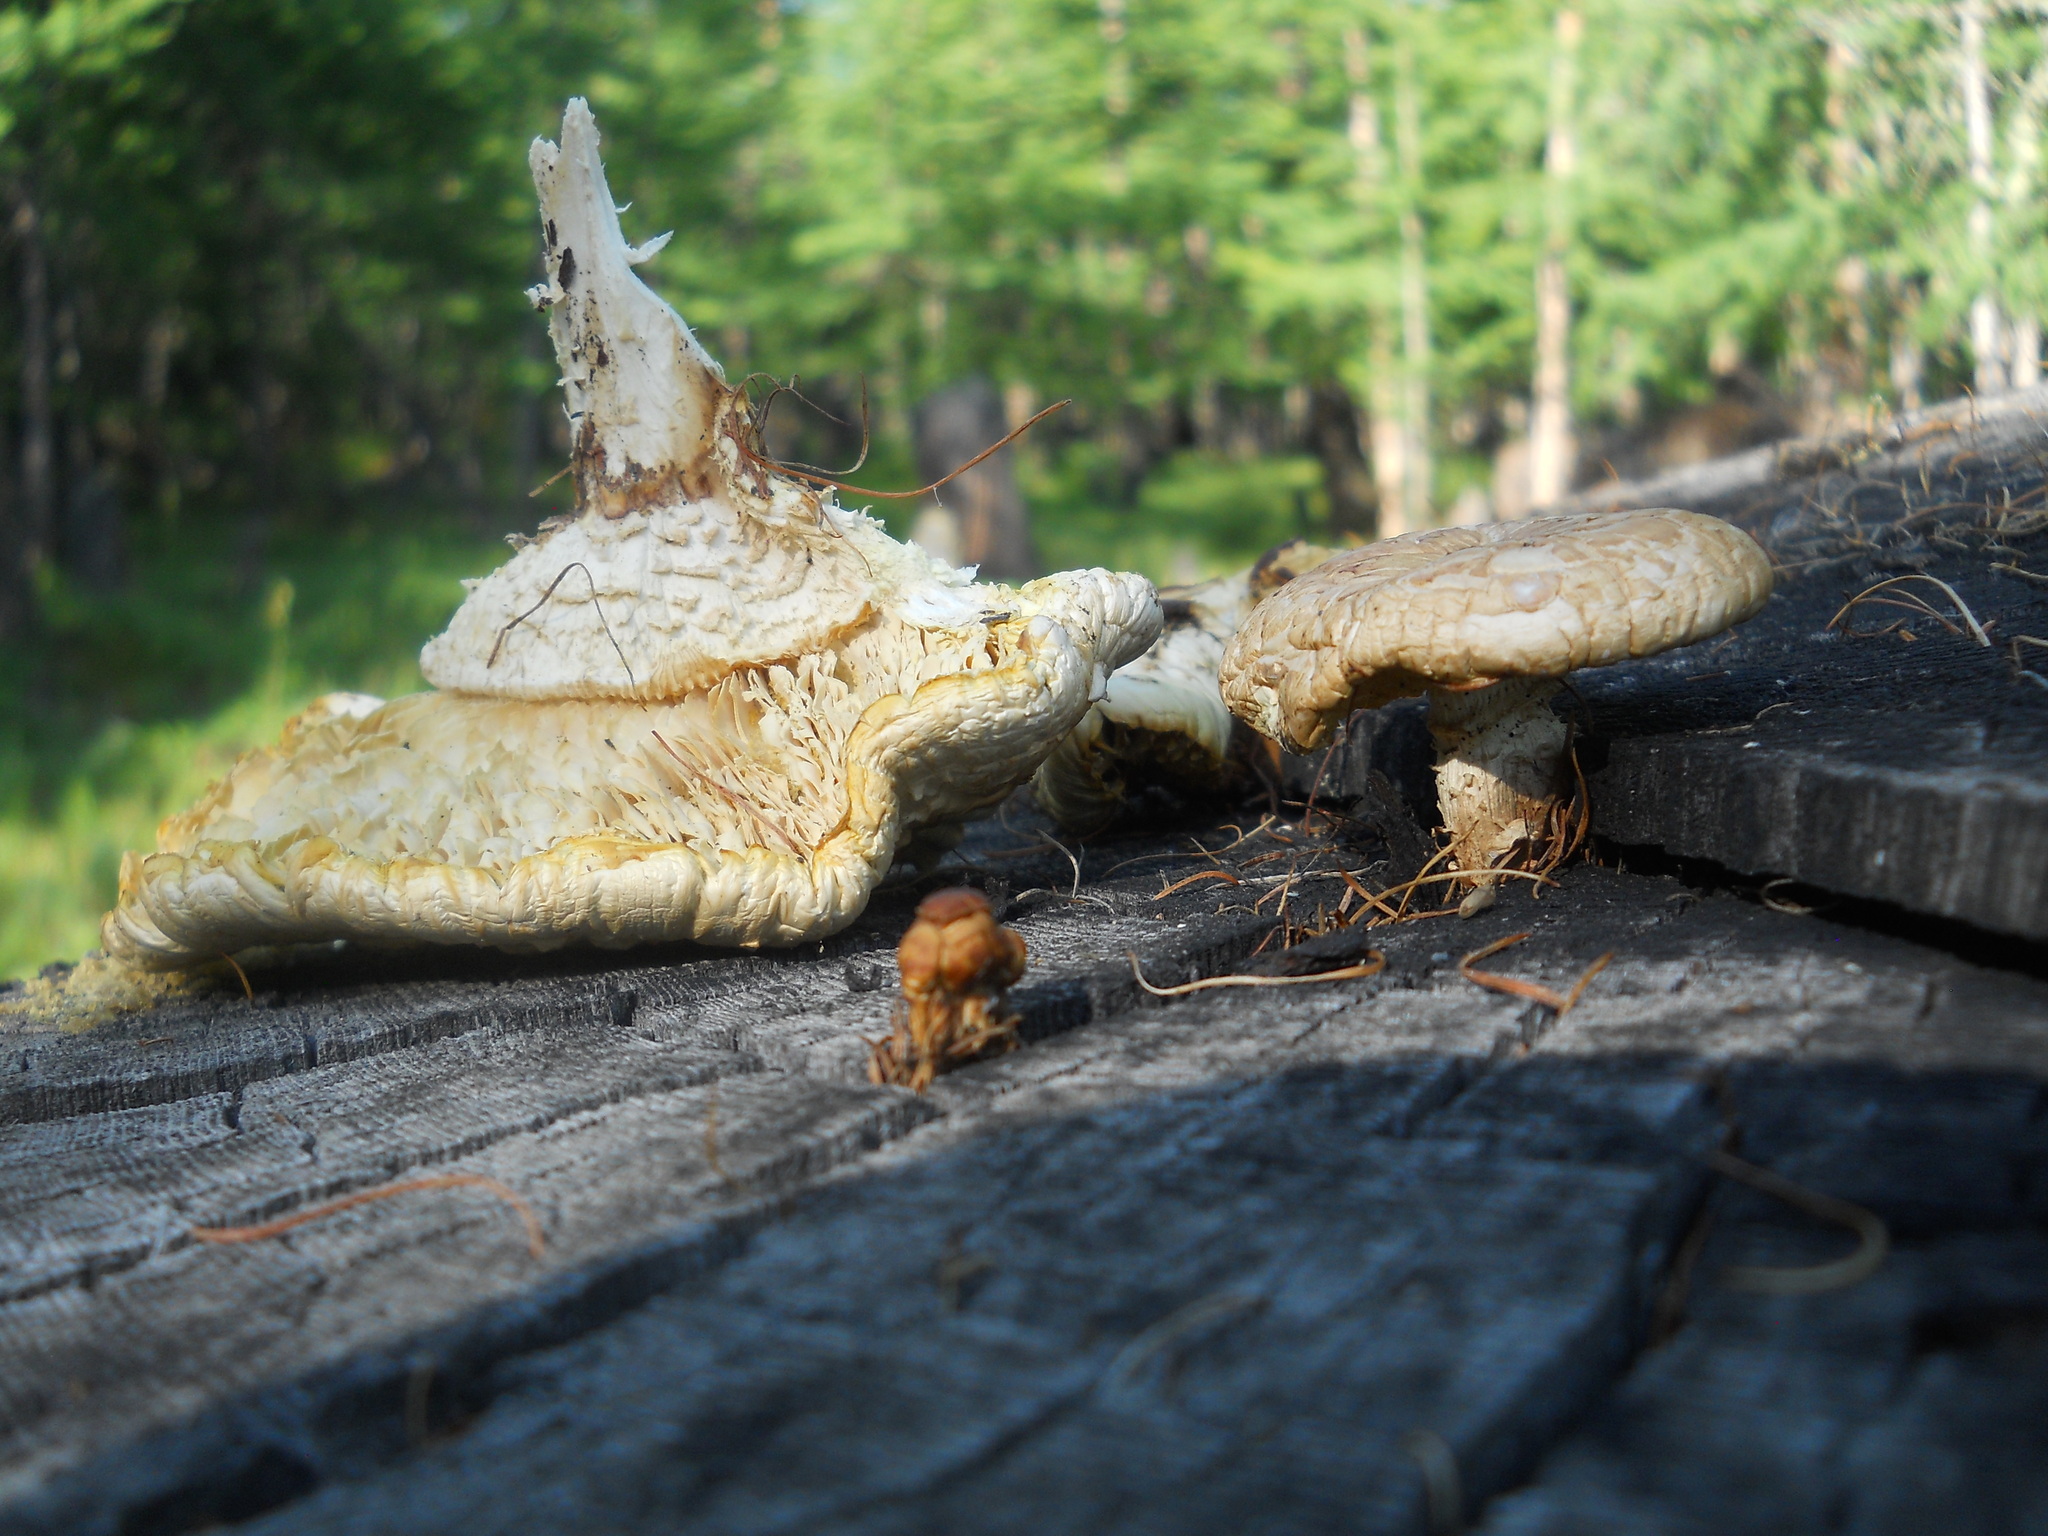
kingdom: Fungi
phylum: Basidiomycota
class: Agaricomycetes
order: Gloeophyllales
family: Gloeophyllaceae
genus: Neolentinus
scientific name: Neolentinus lepideus
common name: Scaly sawgill
